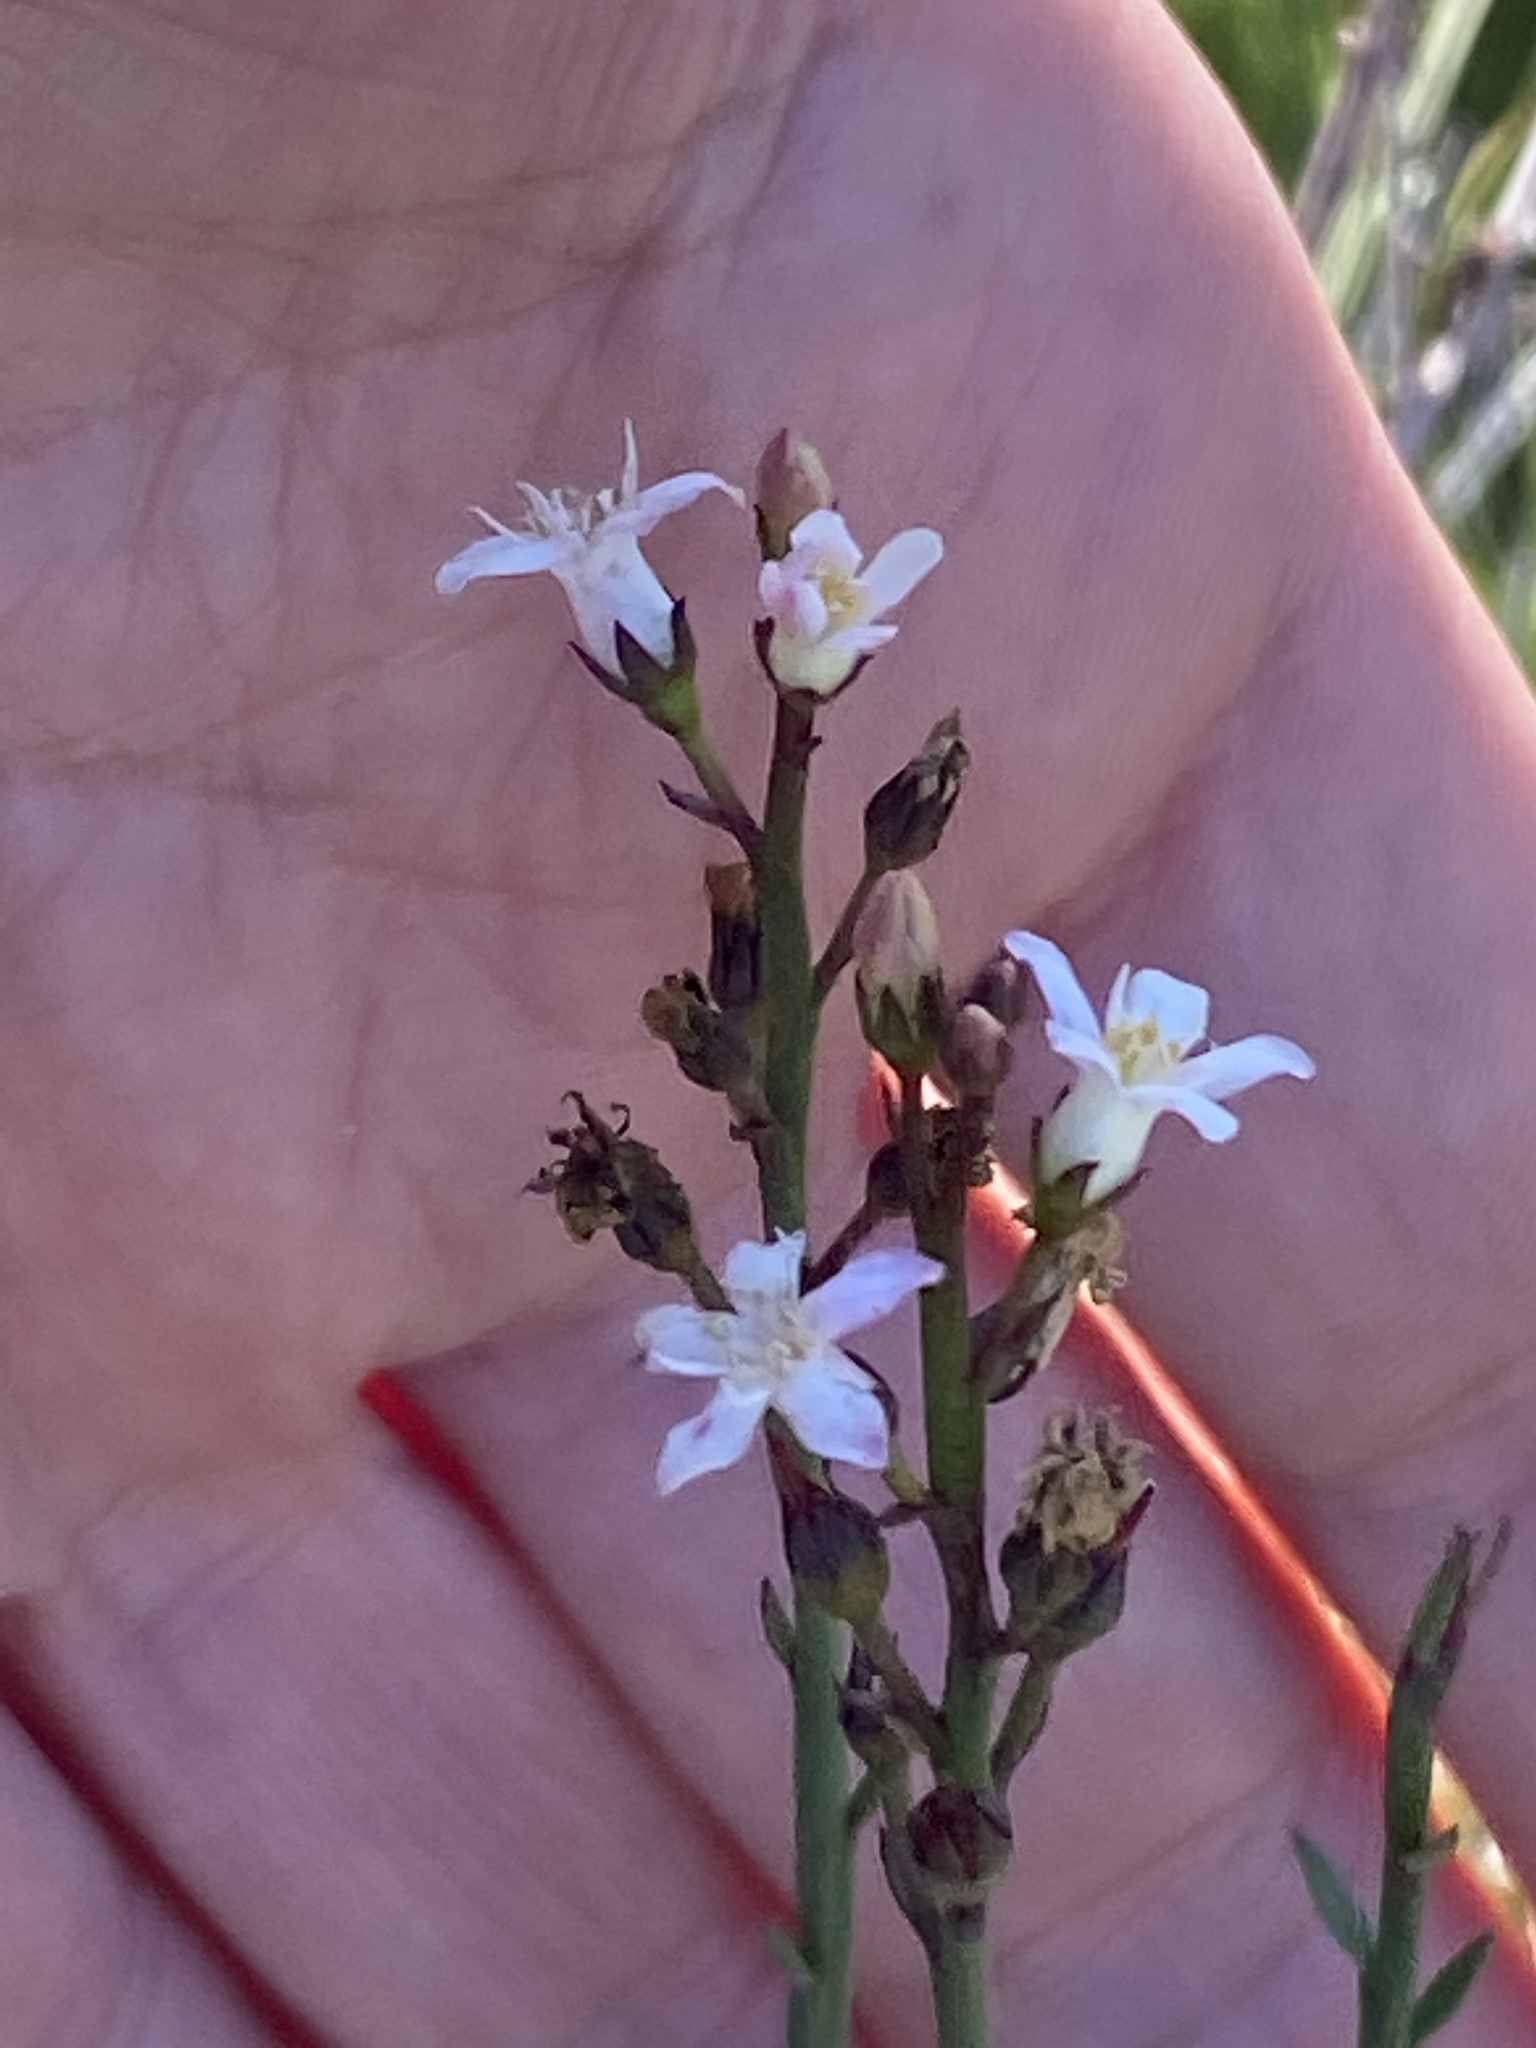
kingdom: Plantae
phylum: Tracheophyta
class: Magnoliopsida
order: Ericales
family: Primulaceae
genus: Samolus
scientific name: Samolus porosus
